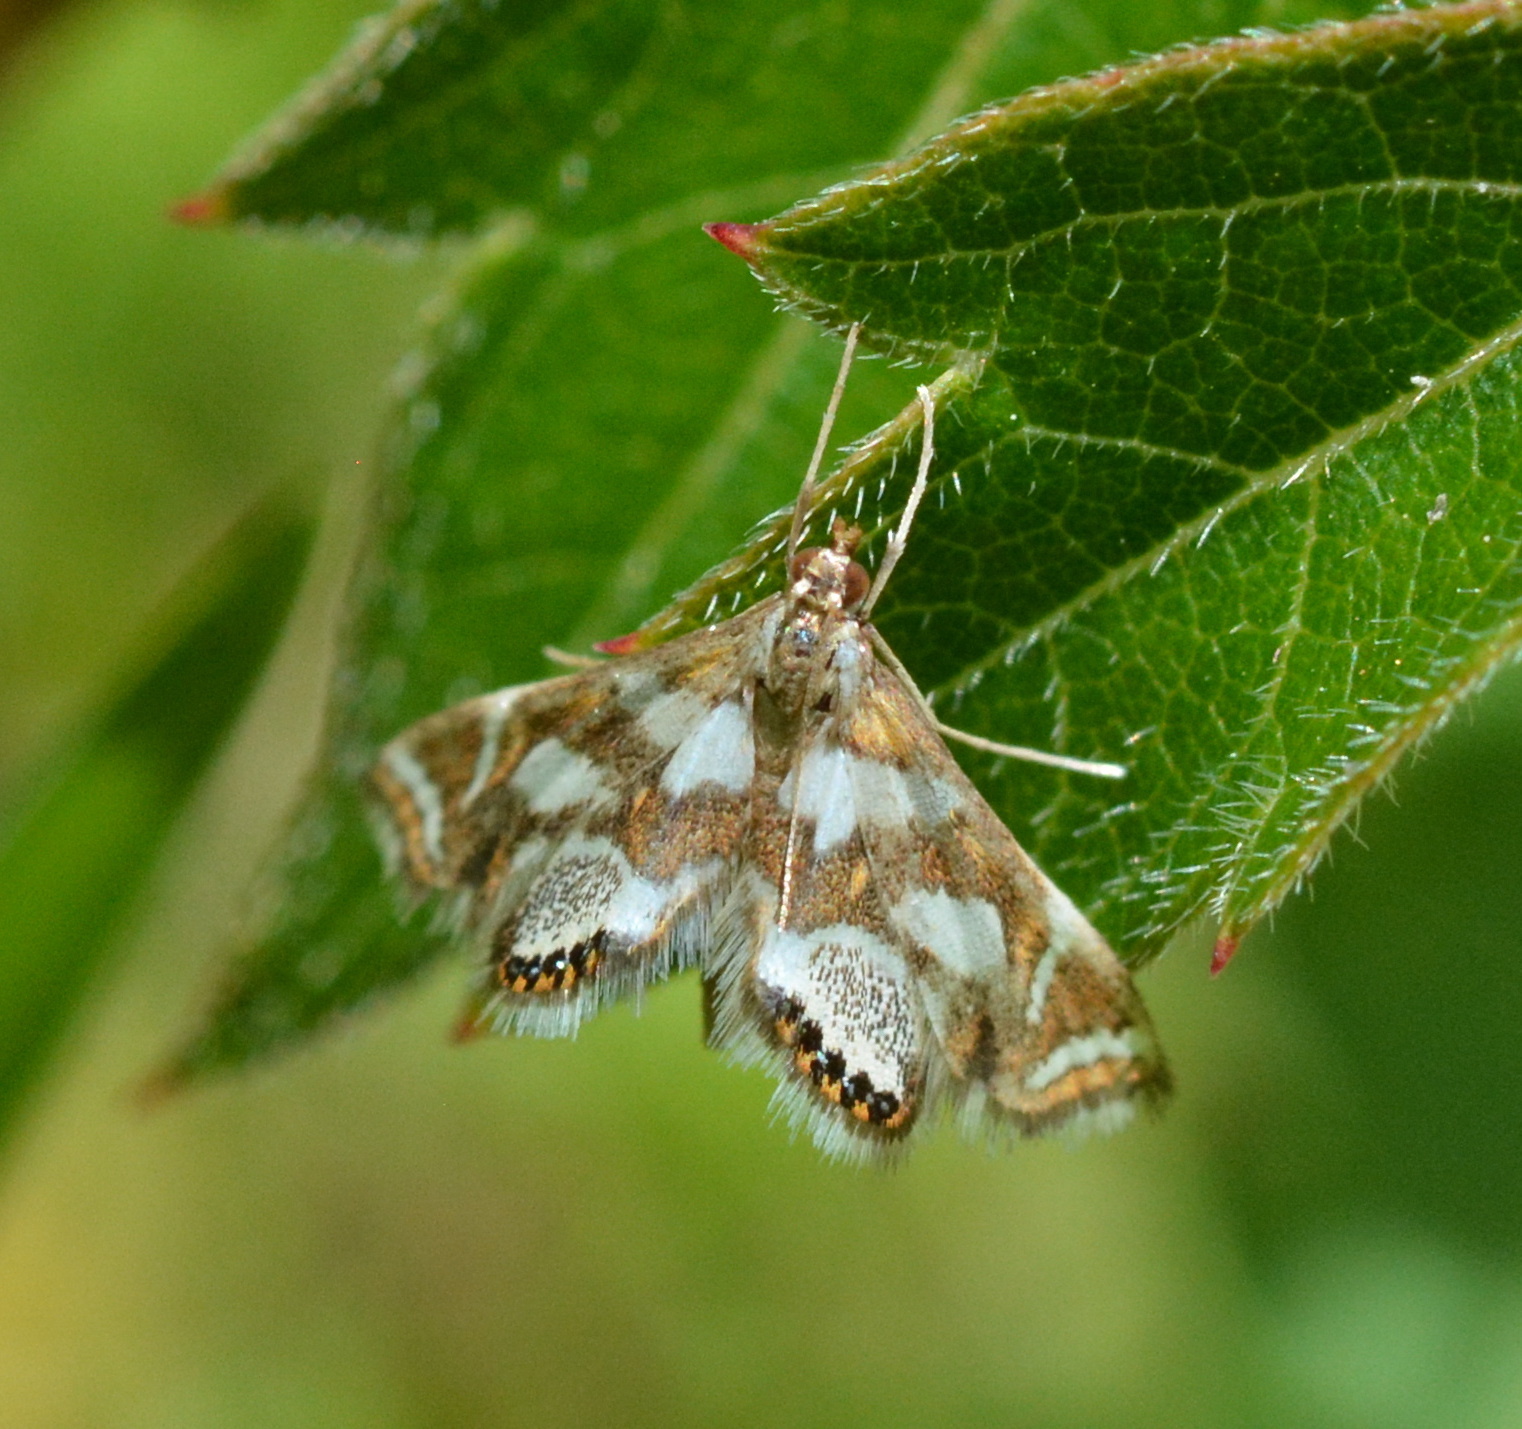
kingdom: Animalia
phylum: Arthropoda
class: Insecta
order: Lepidoptera
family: Crambidae
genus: Chrysendeton
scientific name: Chrysendeton medicinalis
